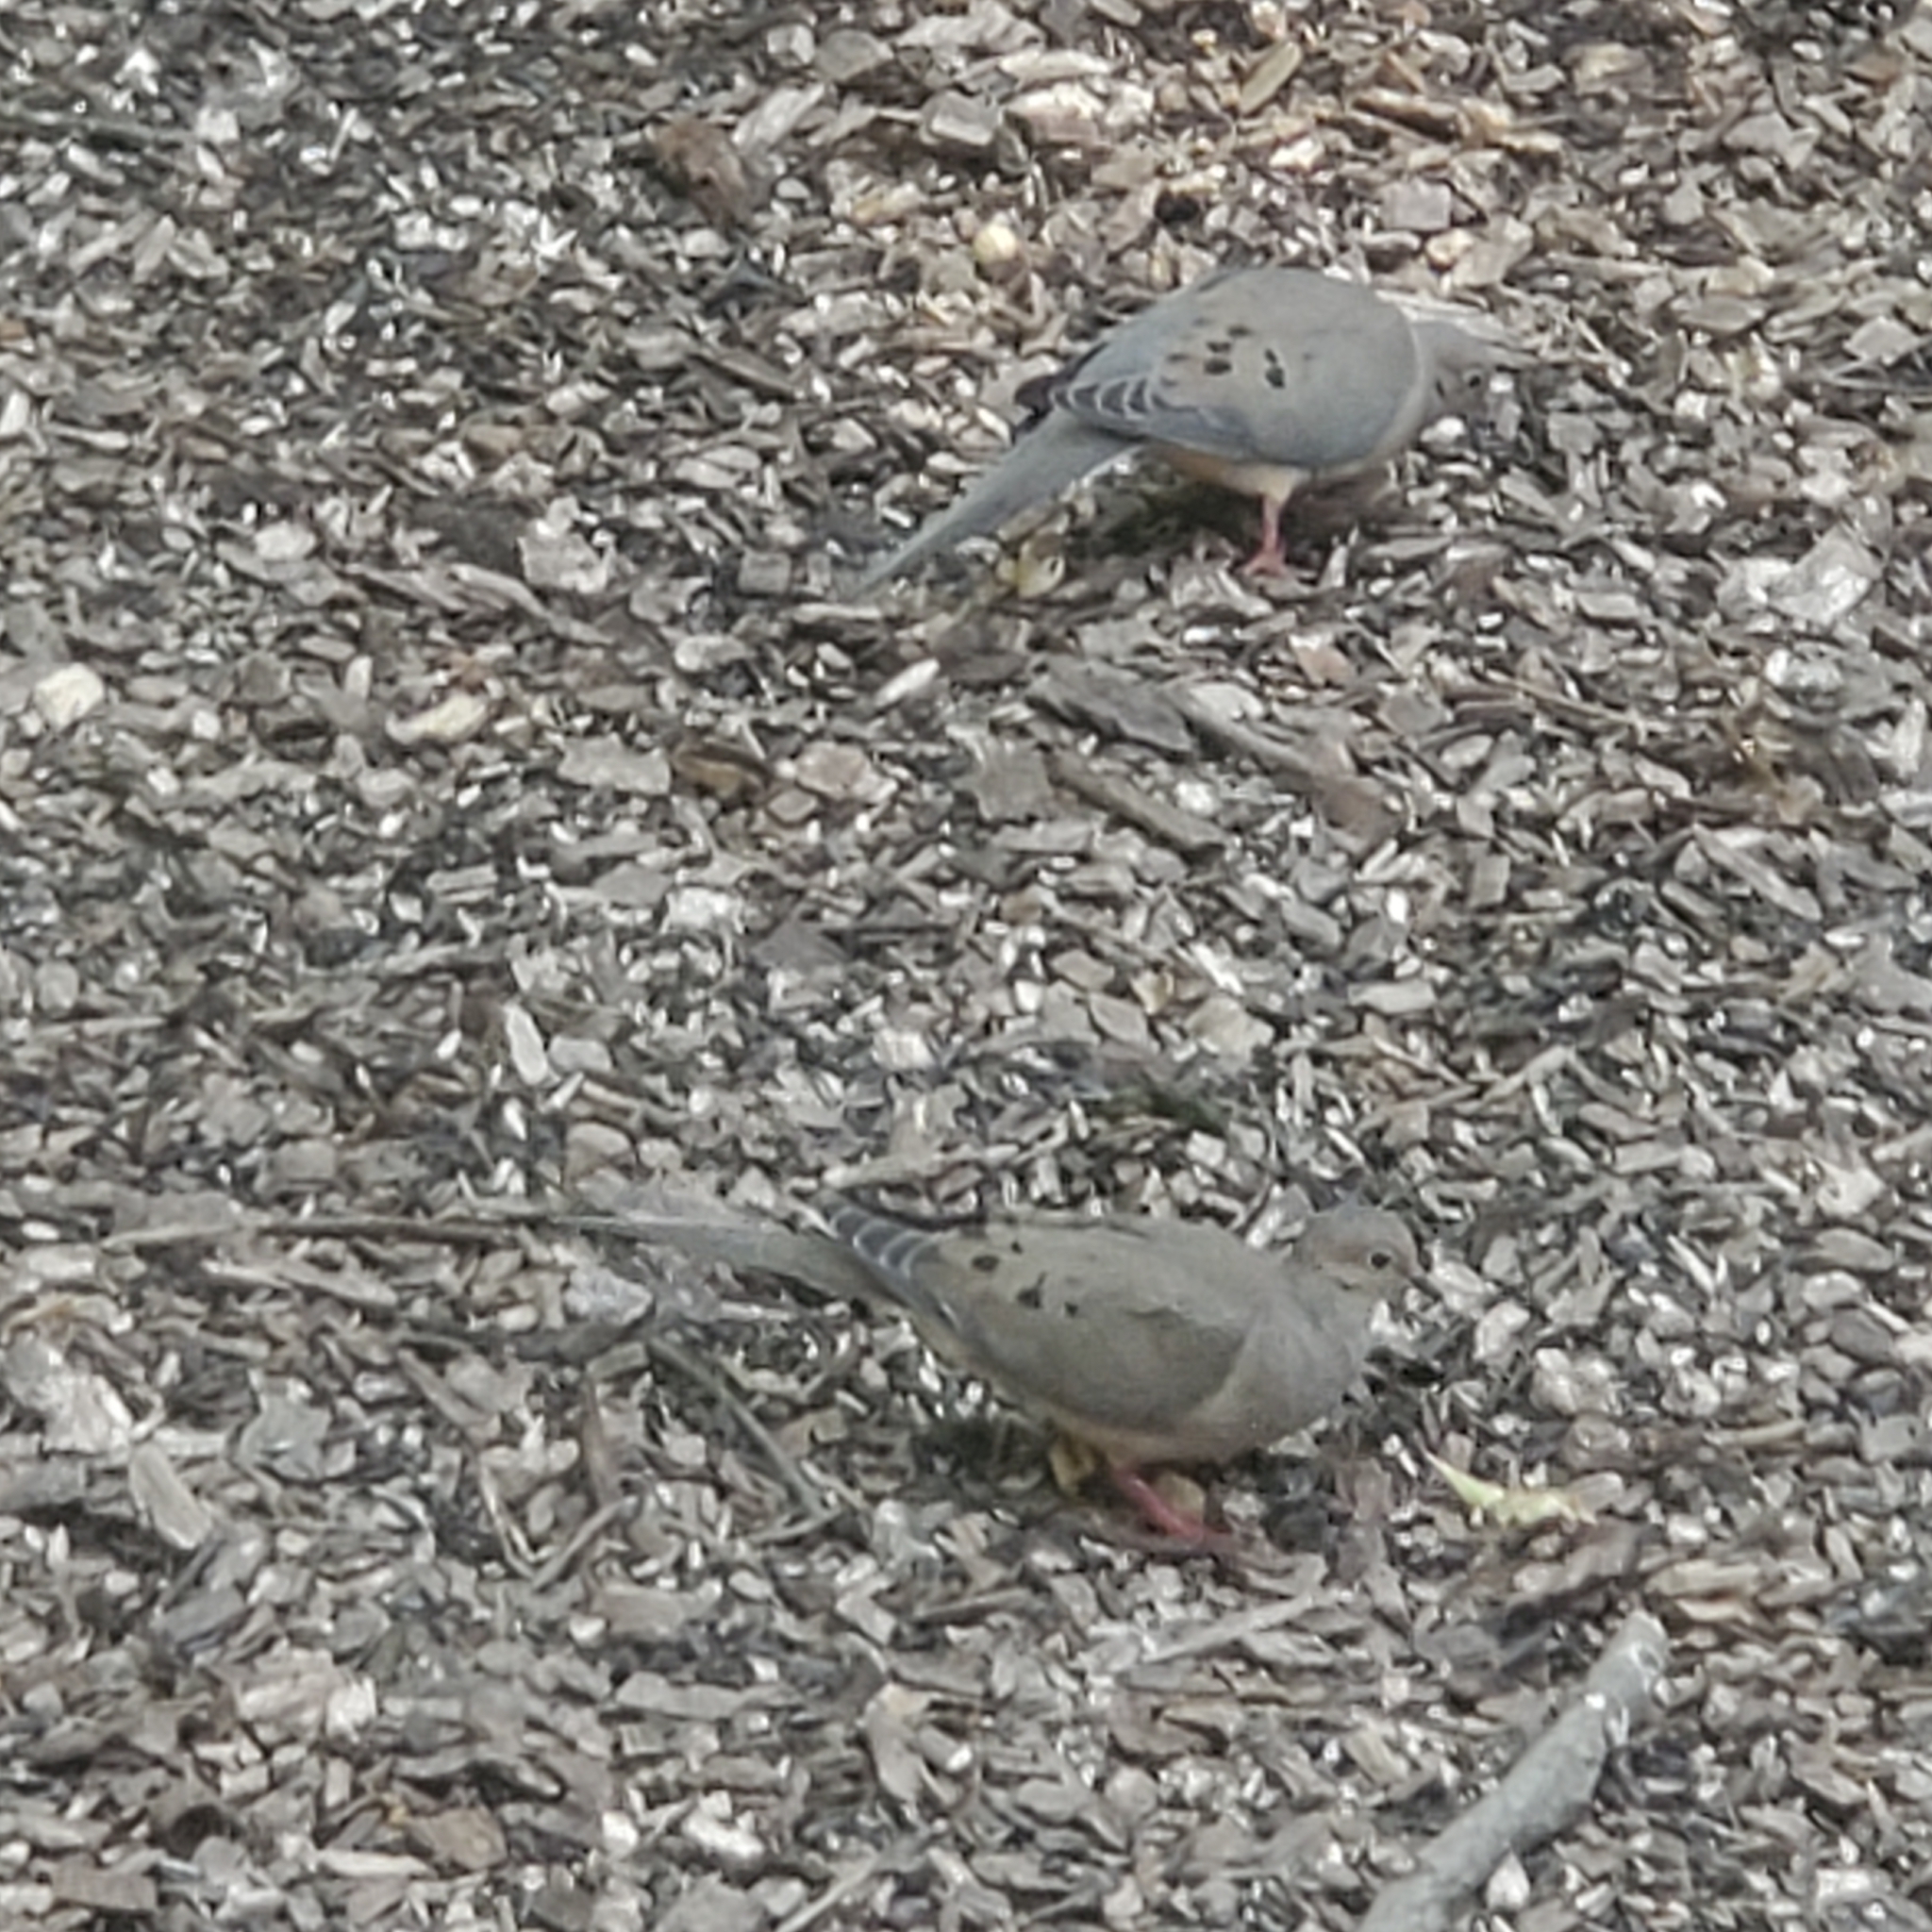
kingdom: Animalia
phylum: Chordata
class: Aves
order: Columbiformes
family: Columbidae
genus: Zenaida
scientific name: Zenaida macroura
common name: Mourning dove
